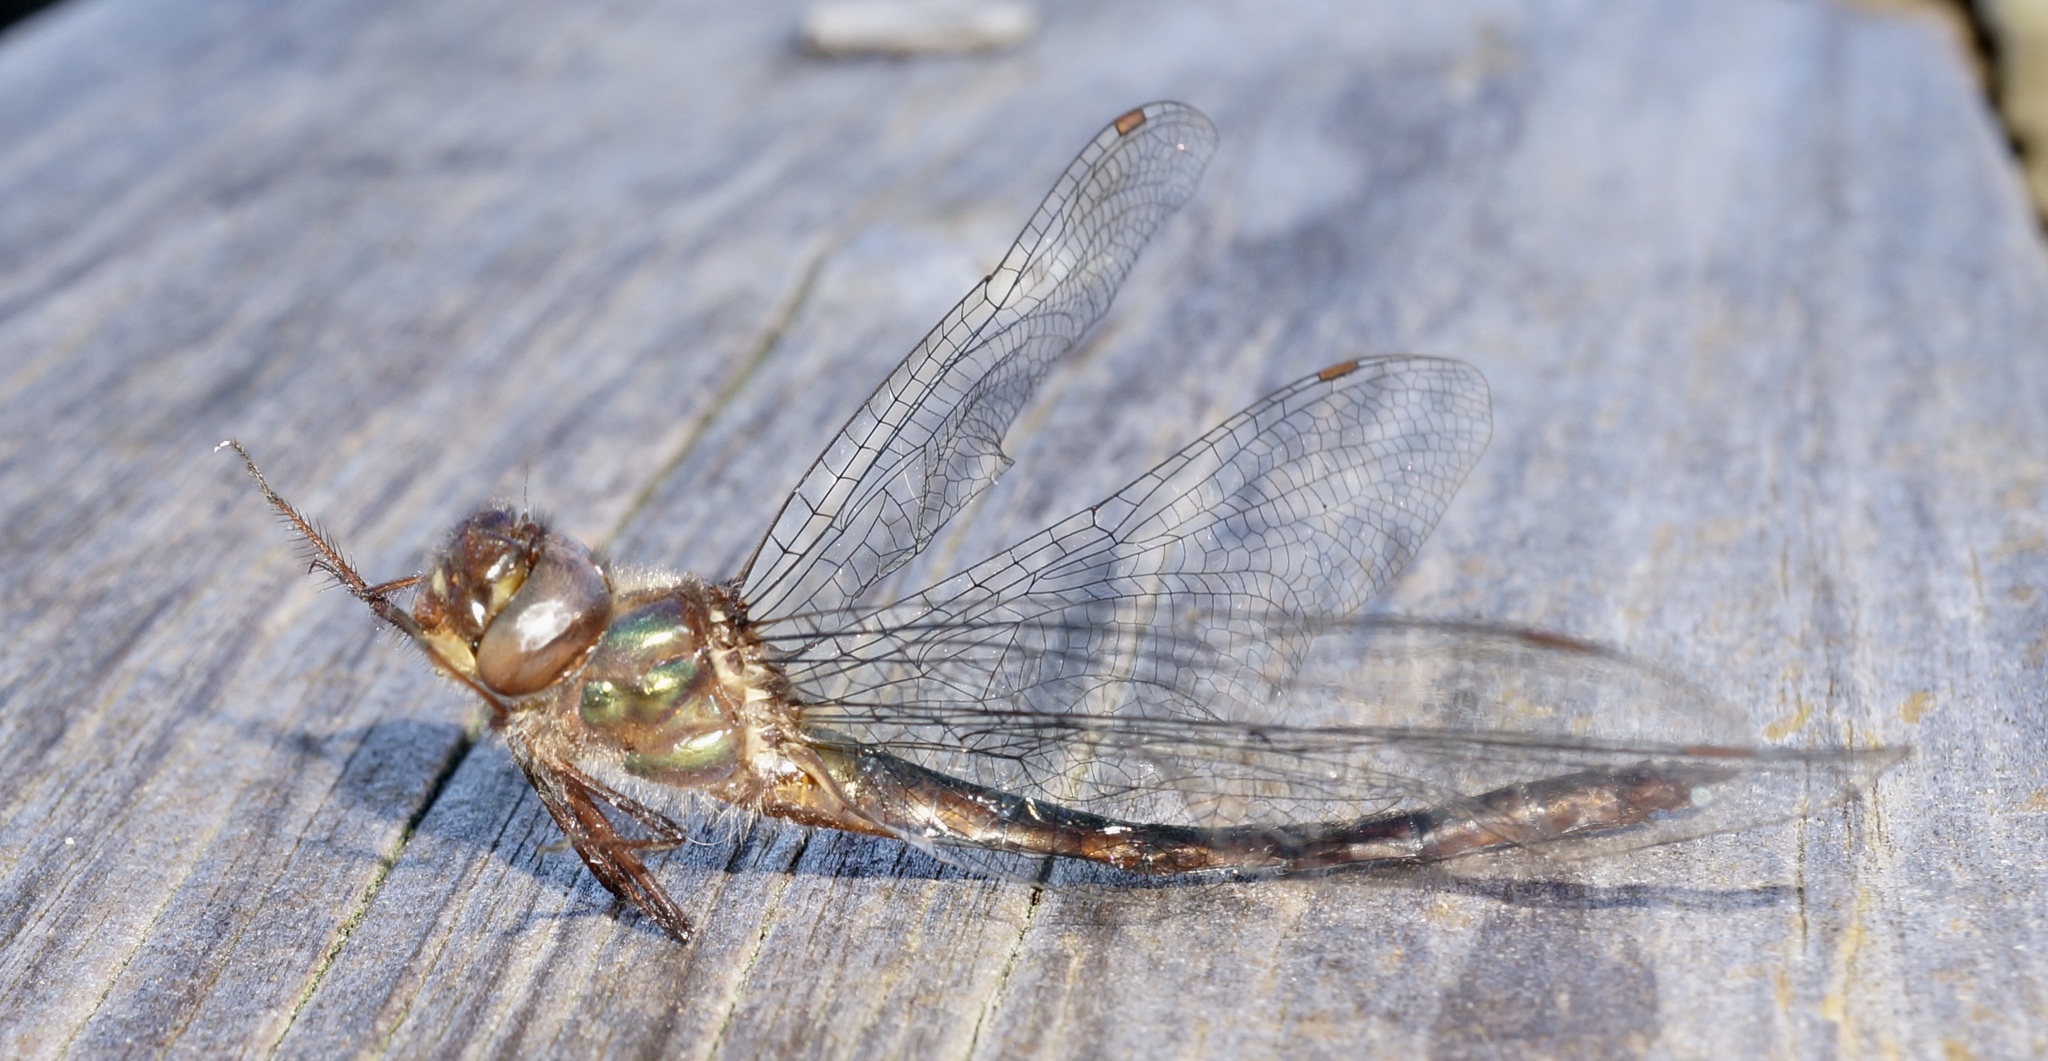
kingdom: Animalia
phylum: Arthropoda
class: Insecta
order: Odonata
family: Corduliidae
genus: Antipodochlora
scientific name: Antipodochlora braueri
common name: Dusk dragonfly
